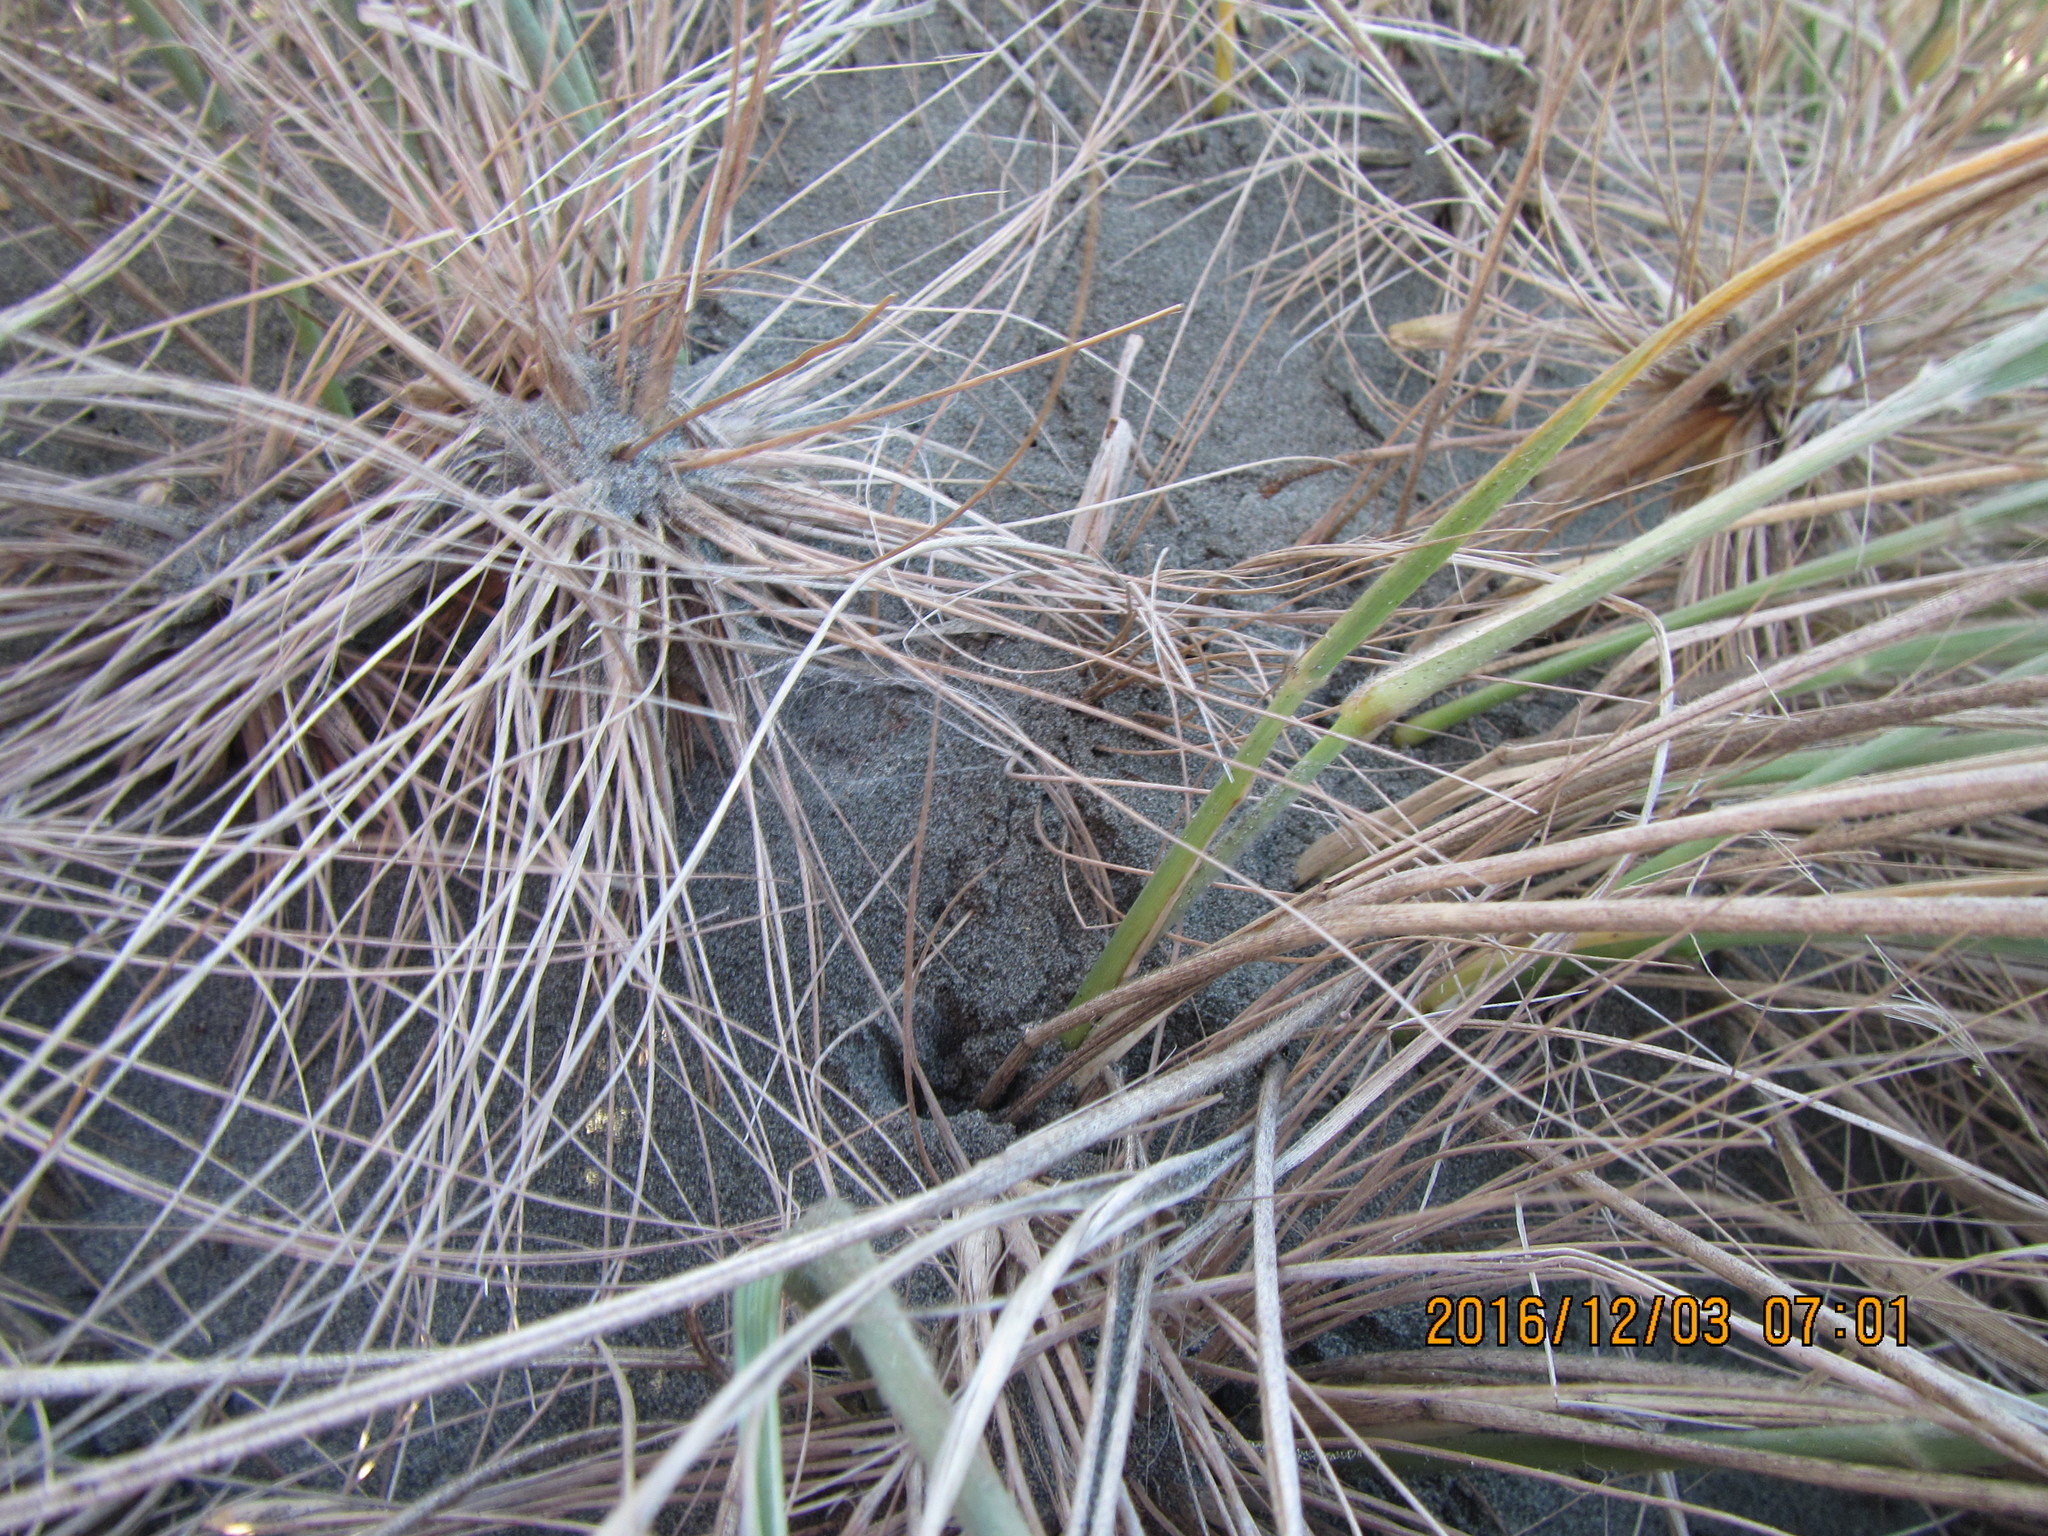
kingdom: Animalia
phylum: Arthropoda
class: Arachnida
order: Araneae
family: Theridiidae
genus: Latrodectus
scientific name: Latrodectus katipo
